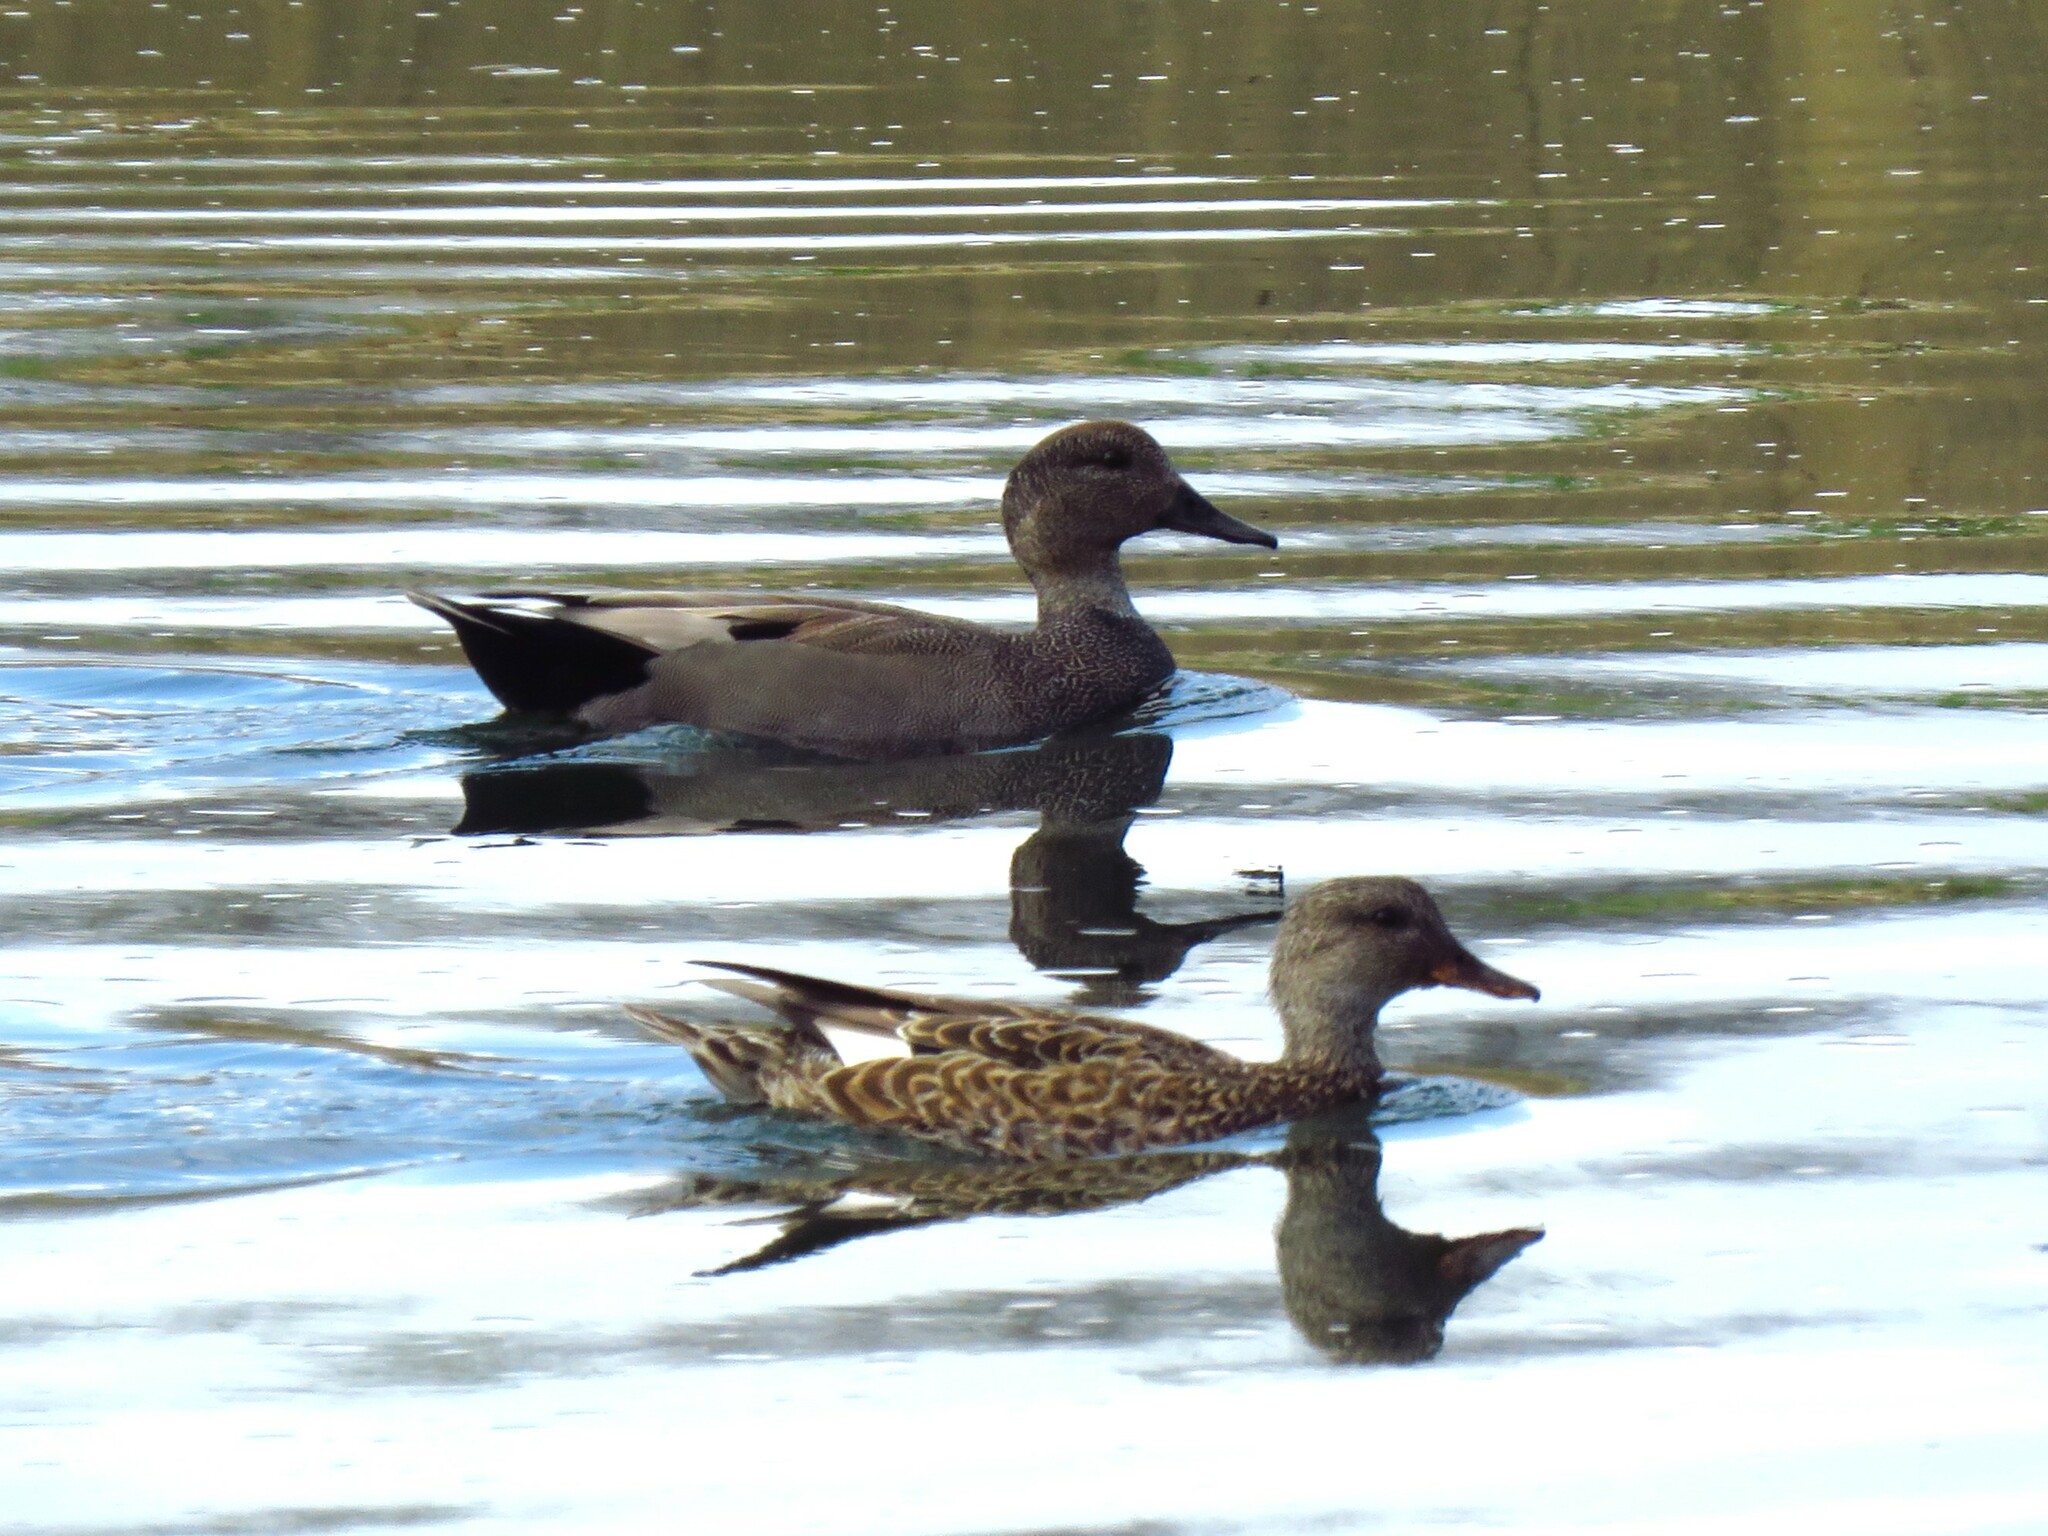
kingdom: Animalia
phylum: Chordata
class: Aves
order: Anseriformes
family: Anatidae
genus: Mareca
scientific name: Mareca strepera
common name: Gadwall
